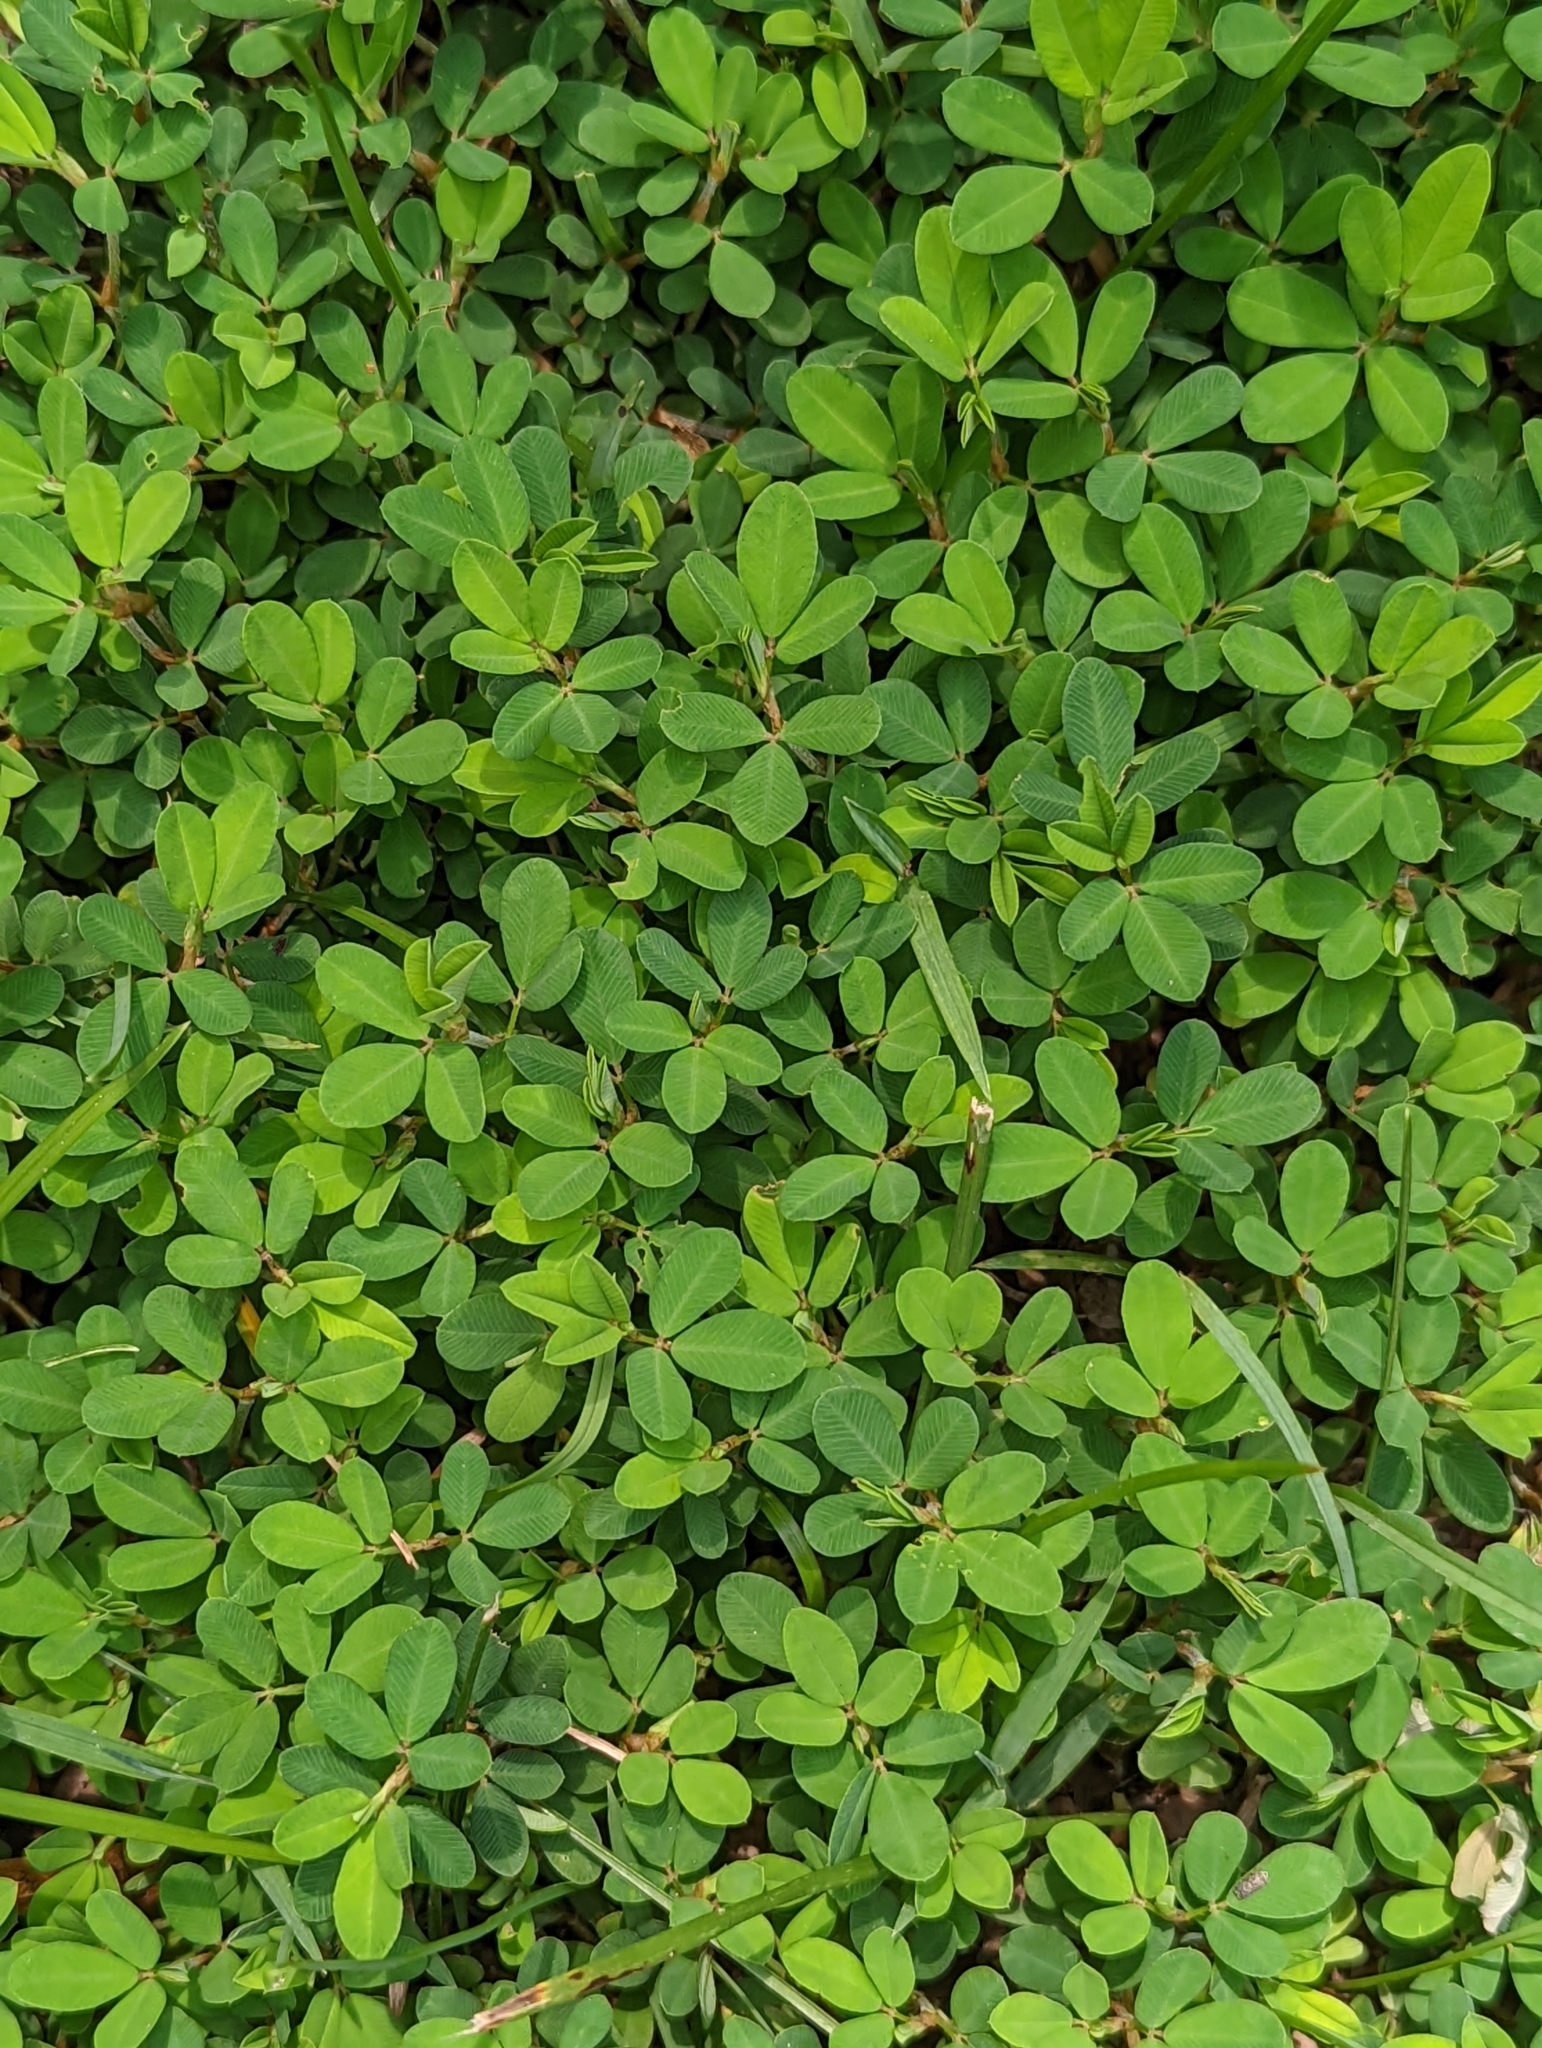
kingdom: Plantae
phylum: Tracheophyta
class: Magnoliopsida
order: Fabales
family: Fabaceae
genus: Kummerowia
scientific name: Kummerowia striata
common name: Japanese clover
